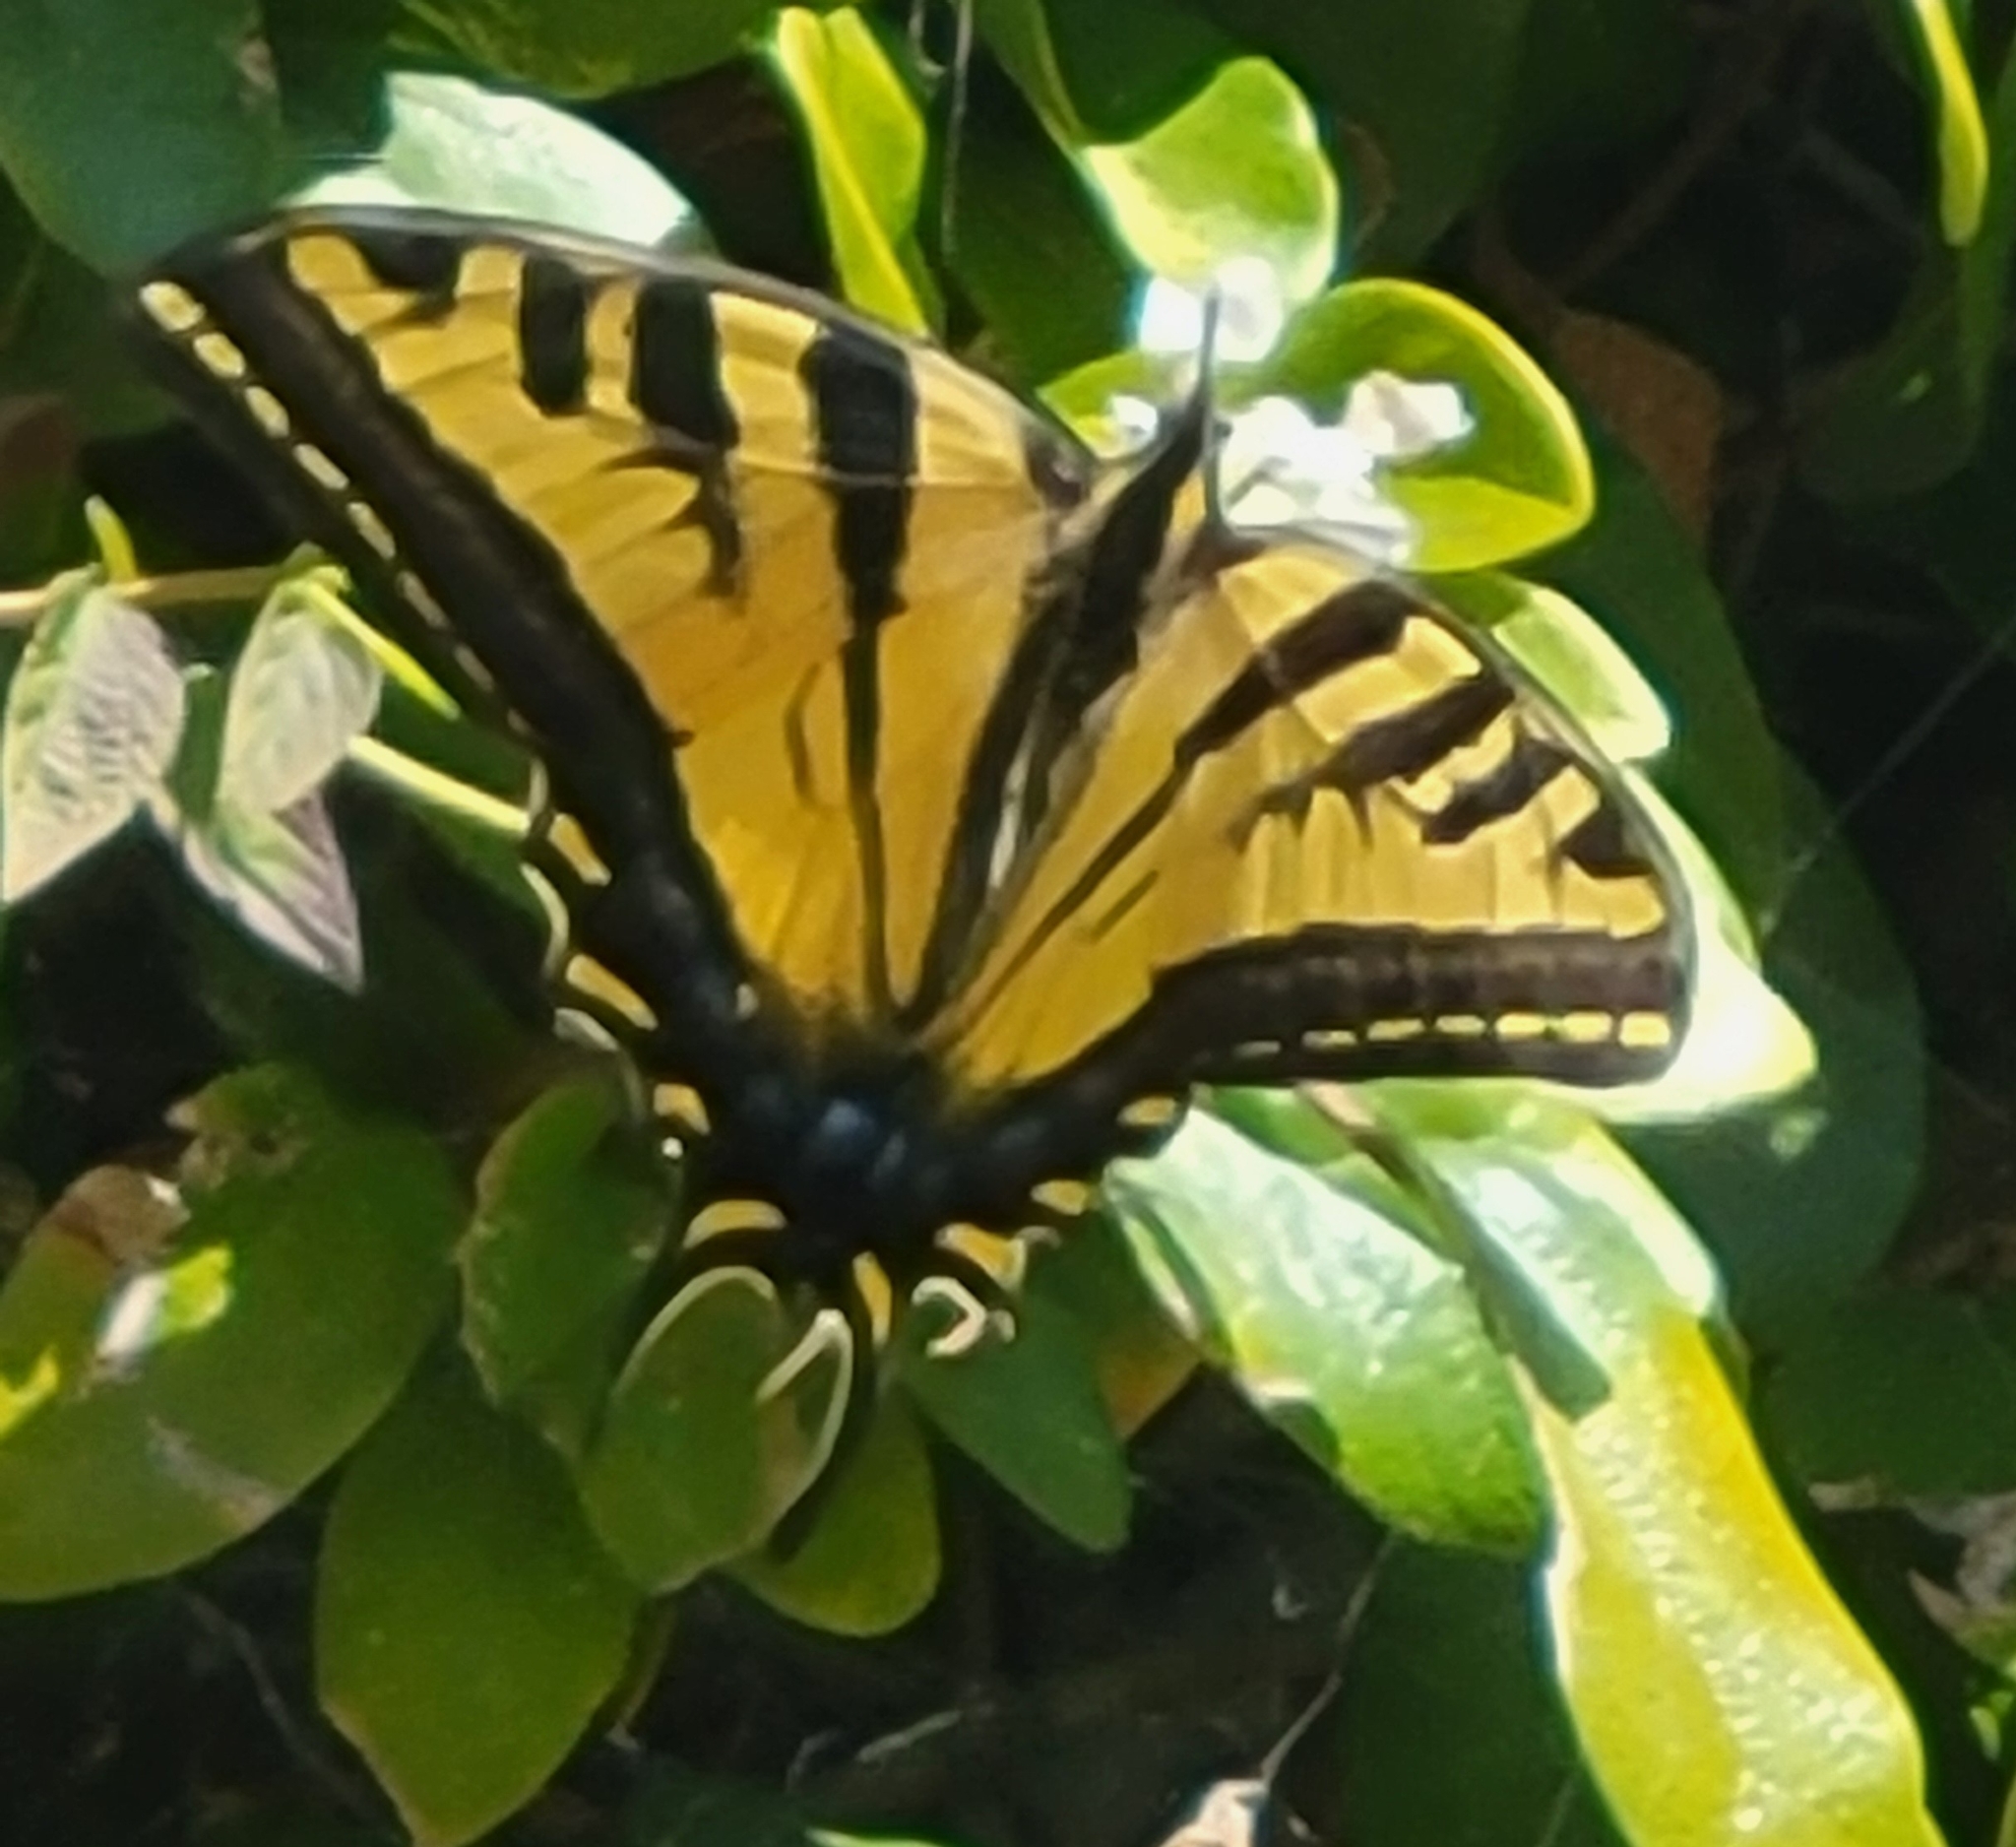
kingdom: Animalia
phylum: Arthropoda
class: Insecta
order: Lepidoptera
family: Papilionidae
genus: Papilio
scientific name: Papilio rutulus
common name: Western tiger swallowtail
